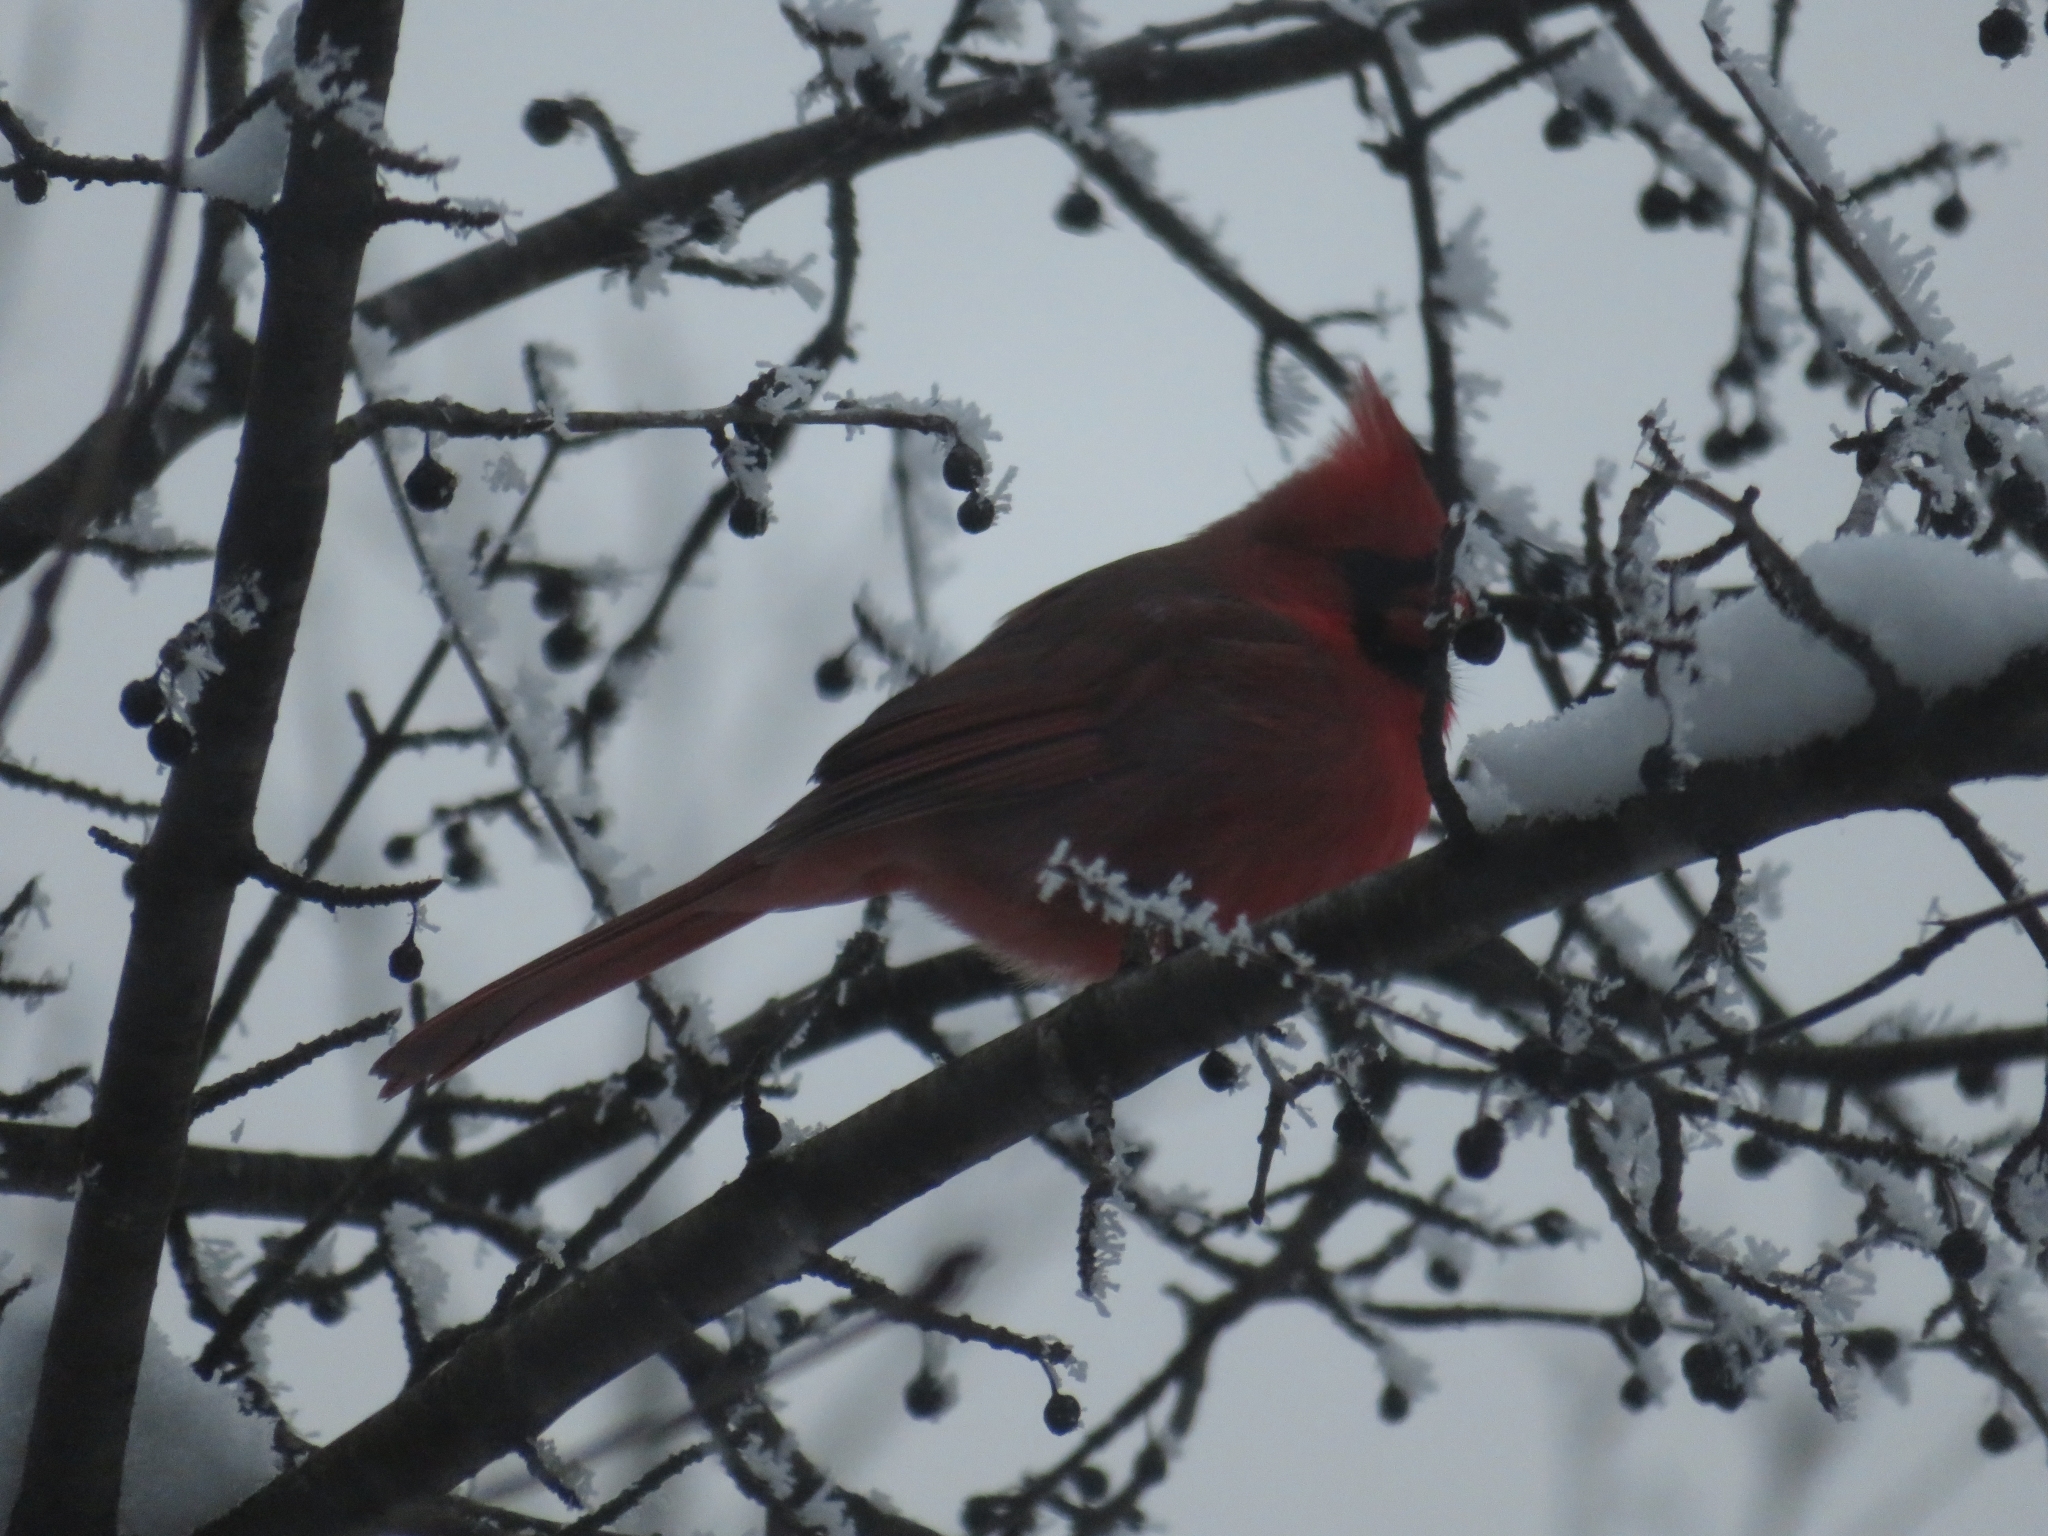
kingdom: Animalia
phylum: Chordata
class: Aves
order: Passeriformes
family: Cardinalidae
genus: Cardinalis
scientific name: Cardinalis cardinalis
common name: Northern cardinal
